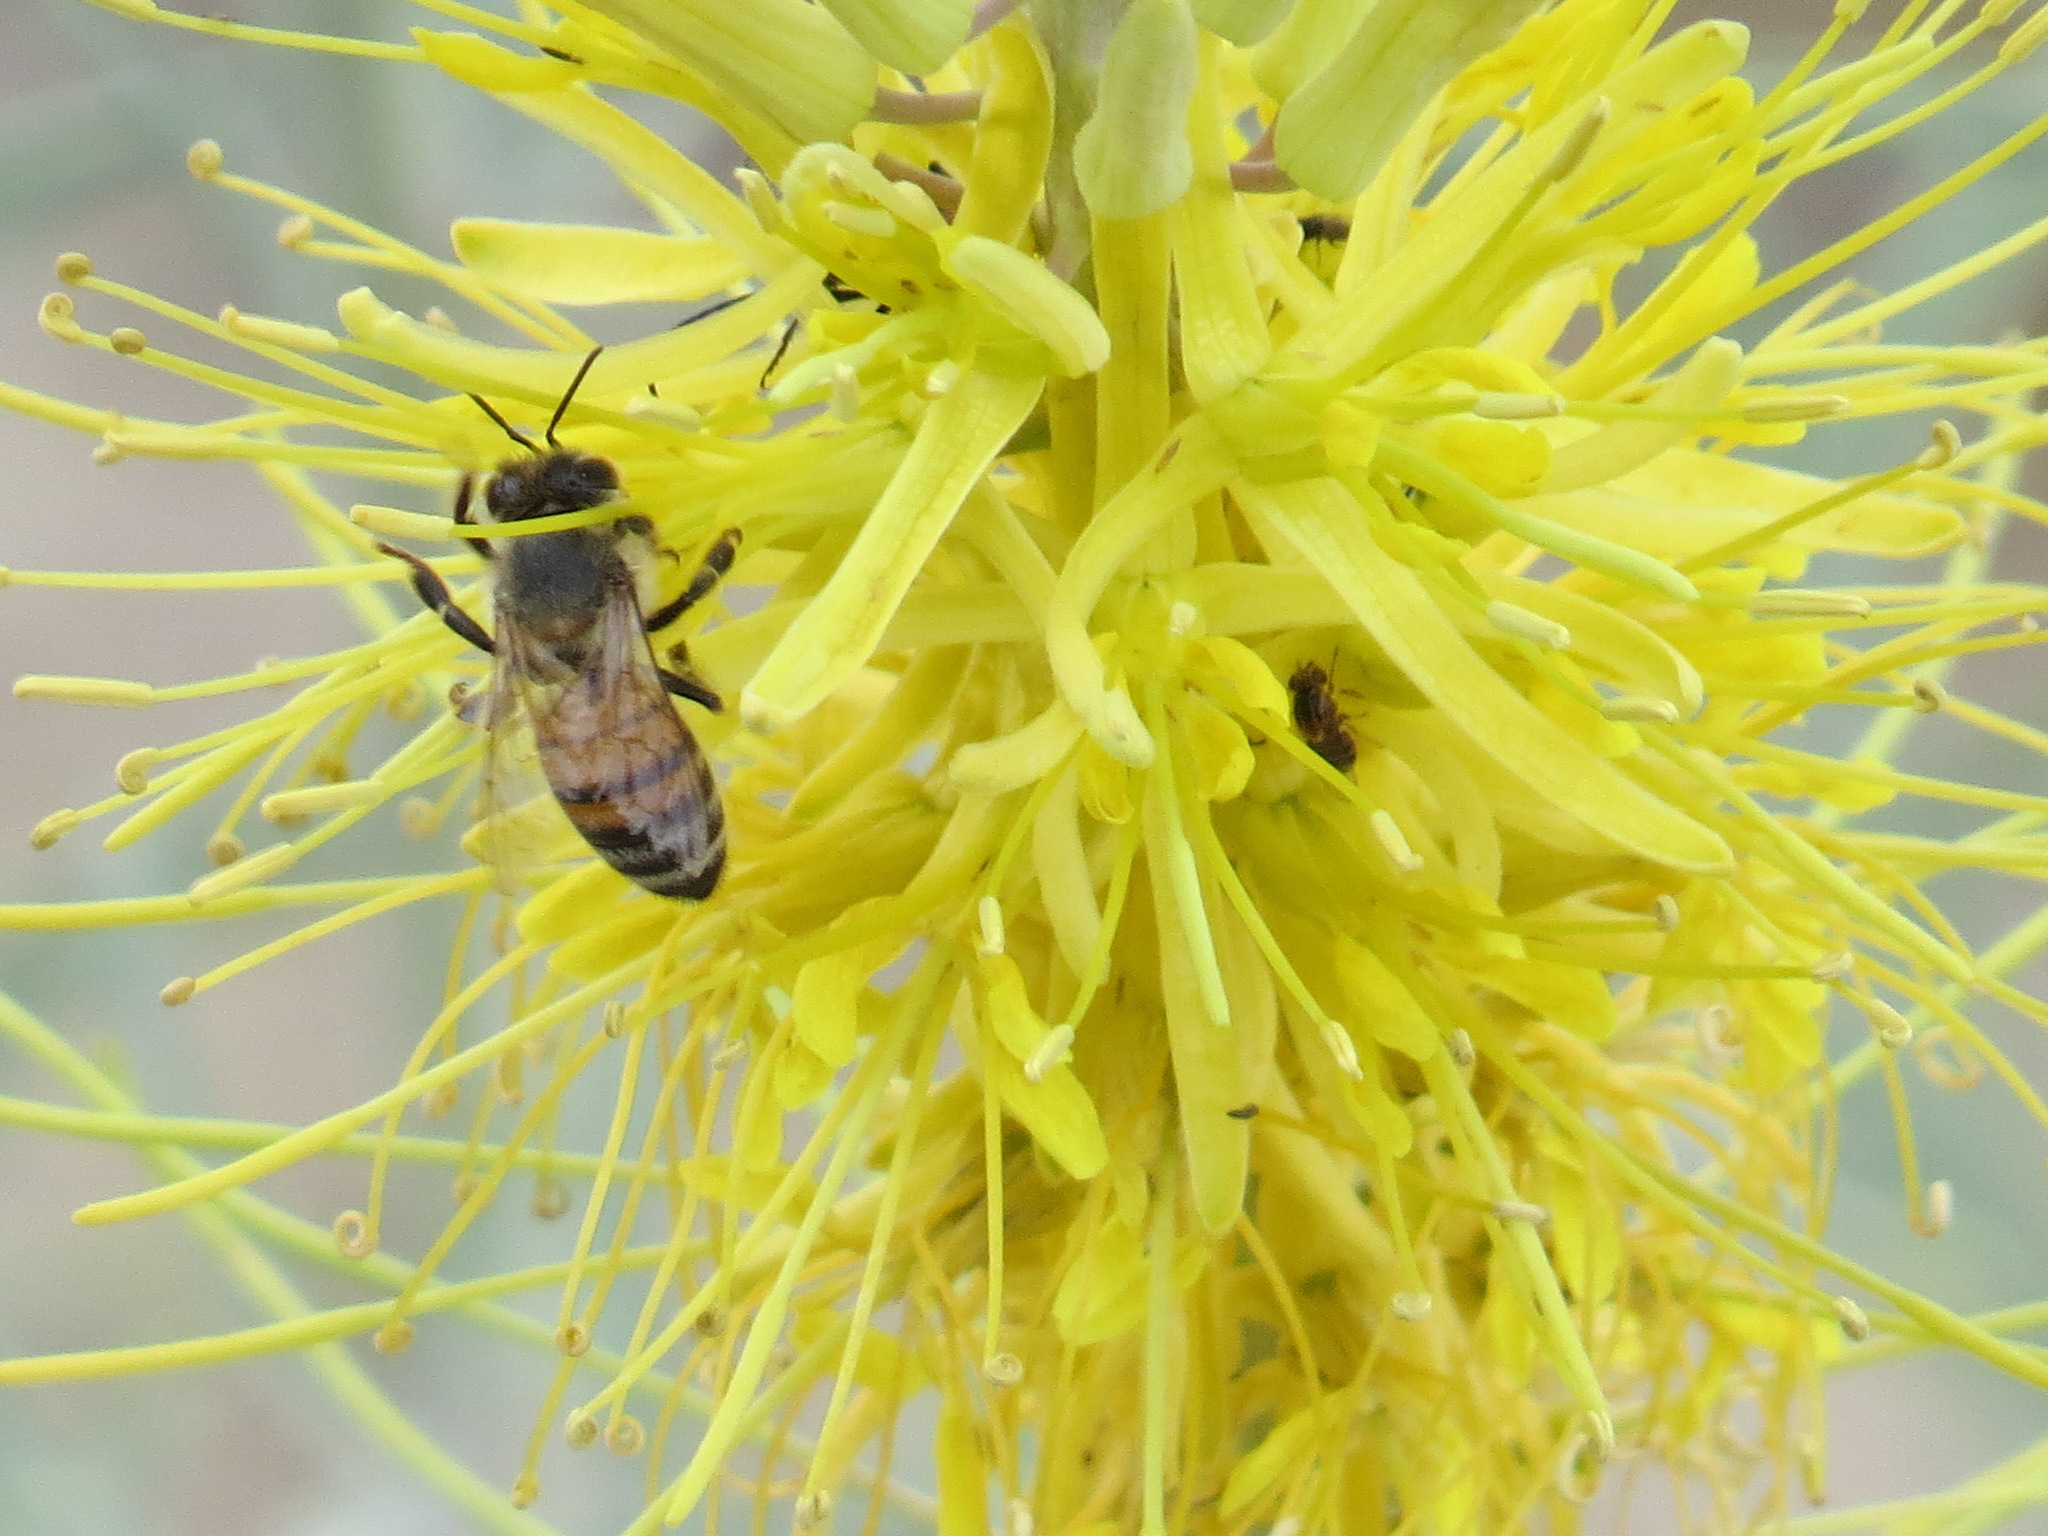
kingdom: Animalia
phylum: Arthropoda
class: Insecta
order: Hymenoptera
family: Apidae
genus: Apis
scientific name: Apis mellifera
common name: Honey bee
